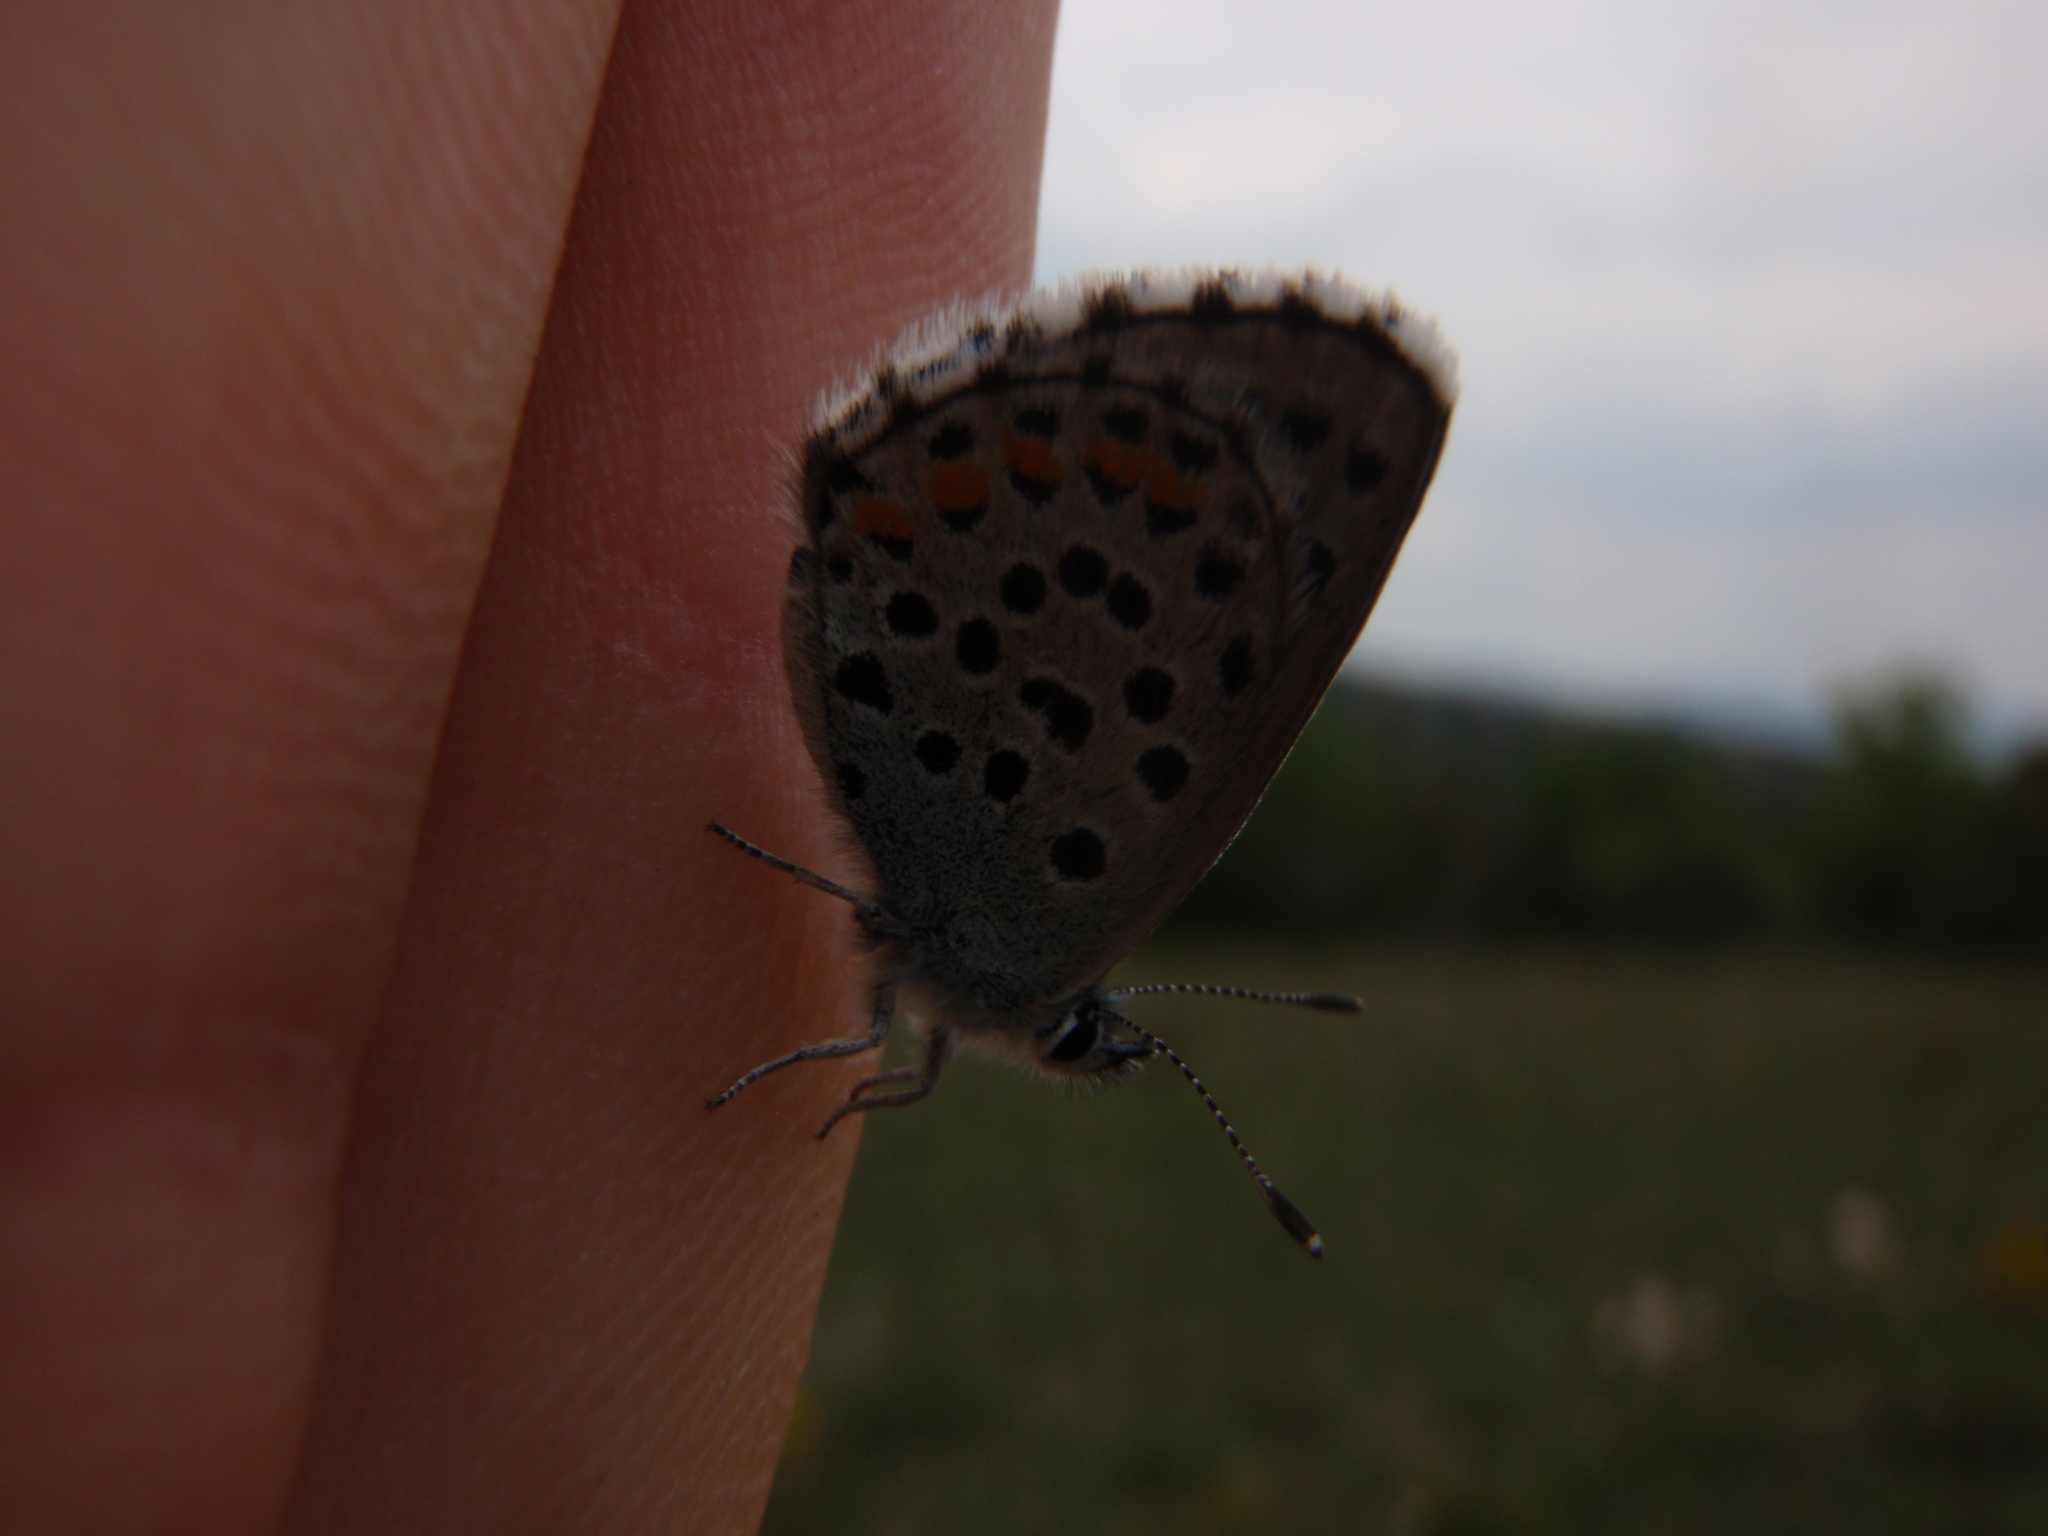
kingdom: Animalia
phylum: Arthropoda
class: Insecta
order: Lepidoptera
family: Lycaenidae
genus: Pseudophilotes
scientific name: Pseudophilotes baton
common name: Baton blue
